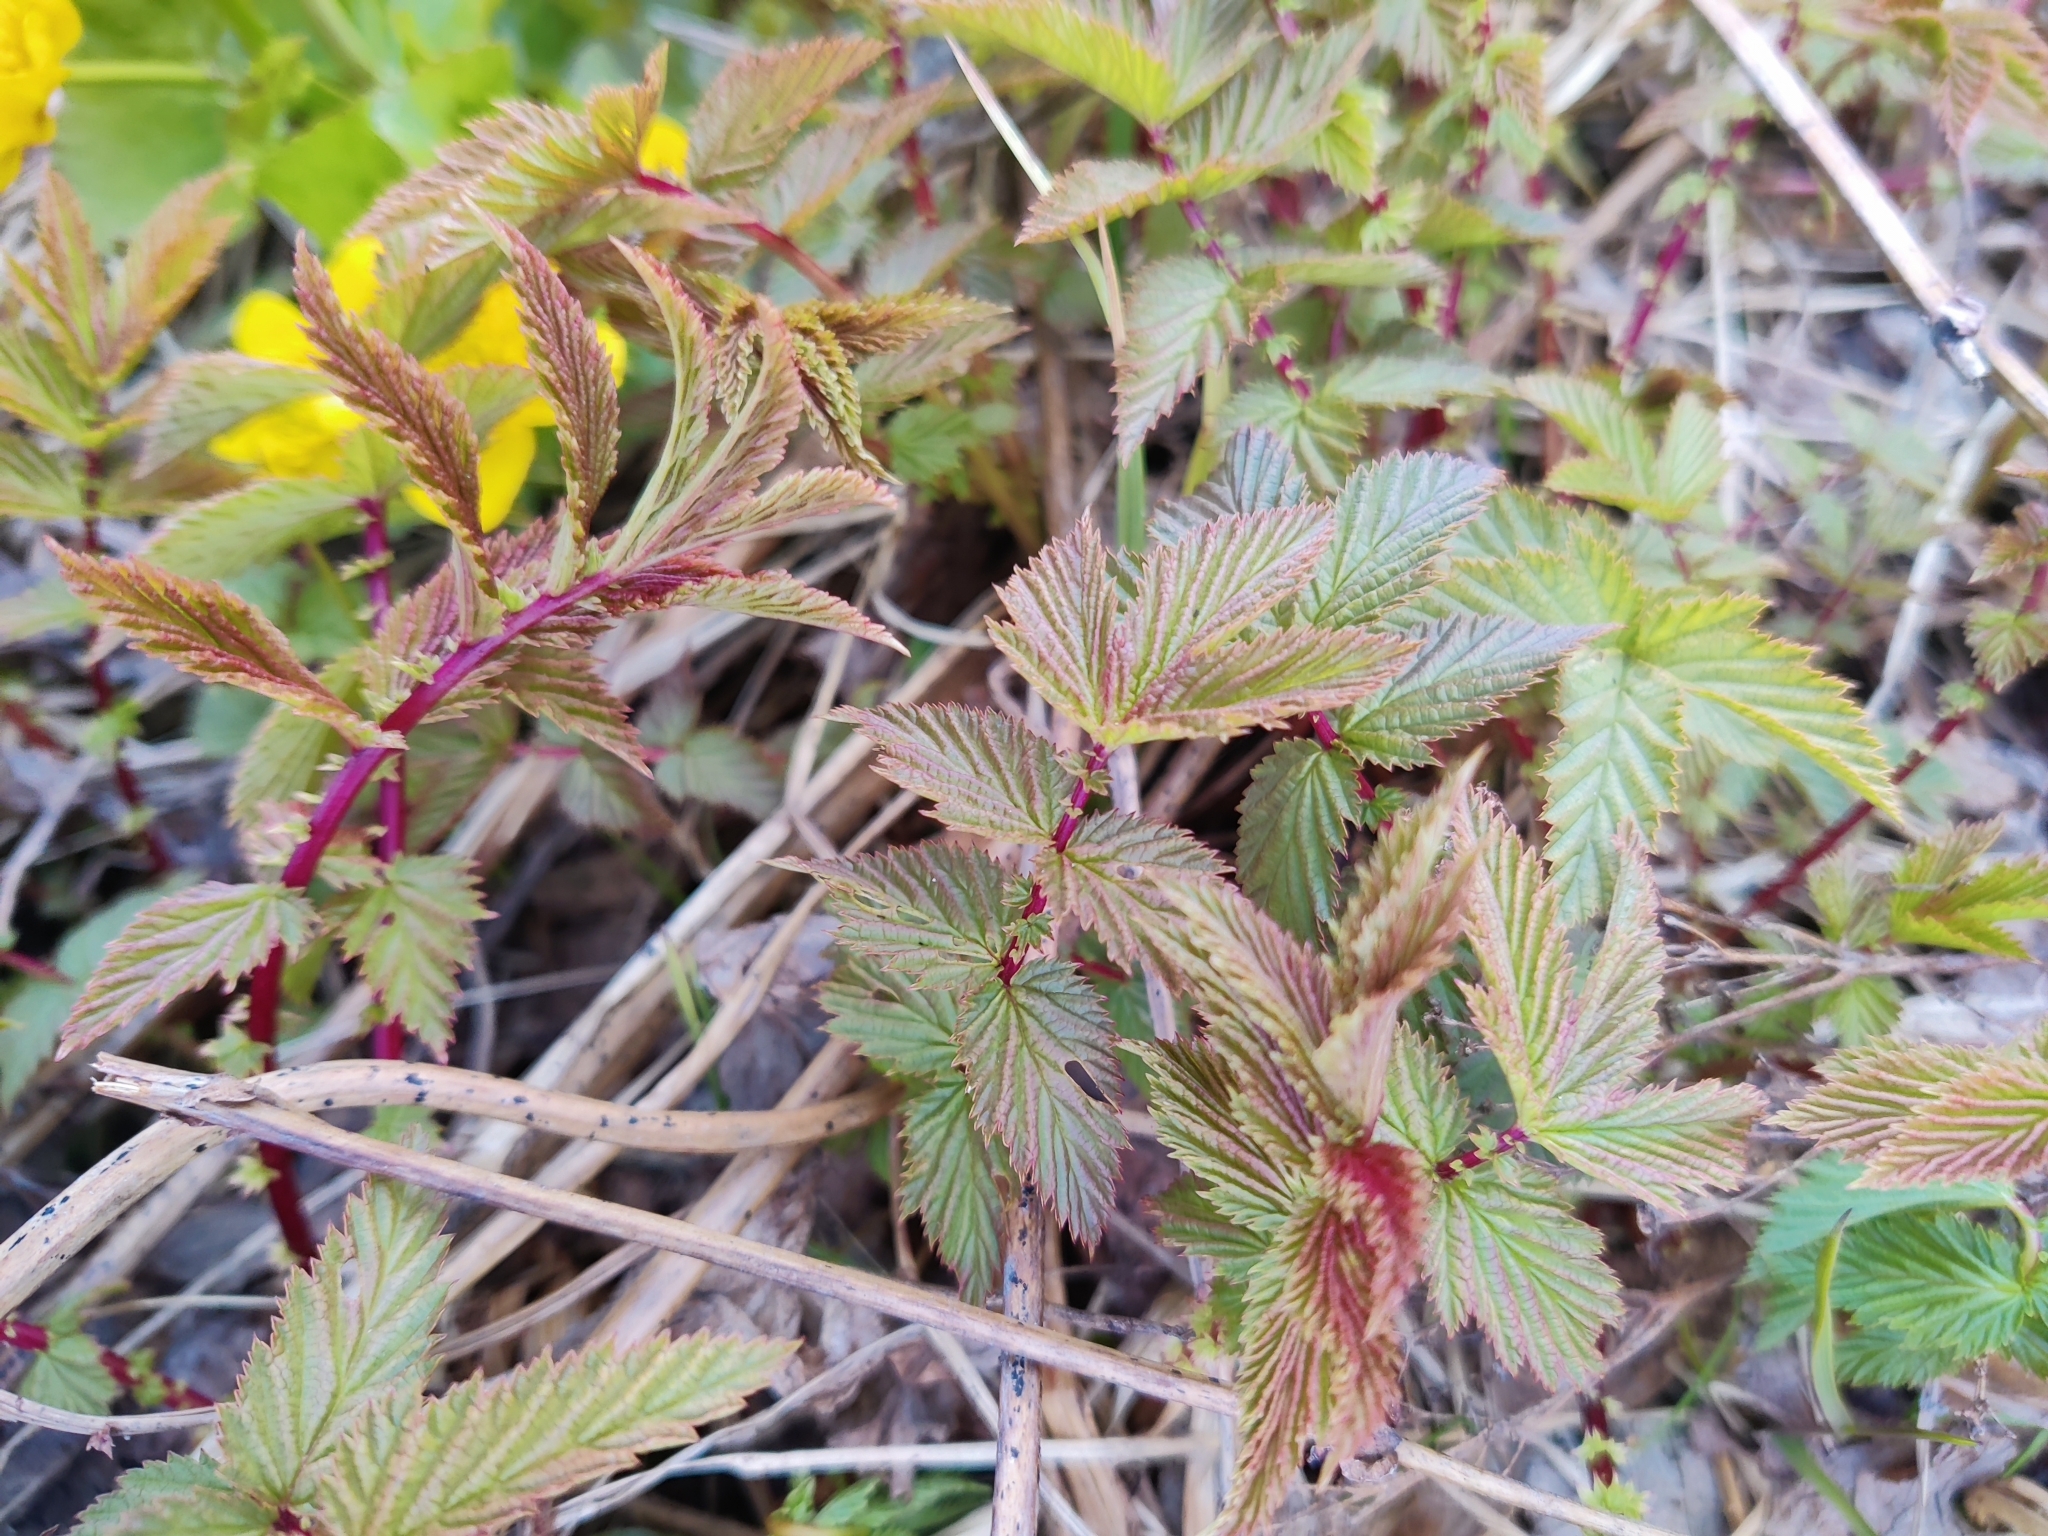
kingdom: Plantae
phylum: Tracheophyta
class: Magnoliopsida
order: Rosales
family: Rosaceae
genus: Filipendula
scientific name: Filipendula ulmaria
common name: Meadowsweet
